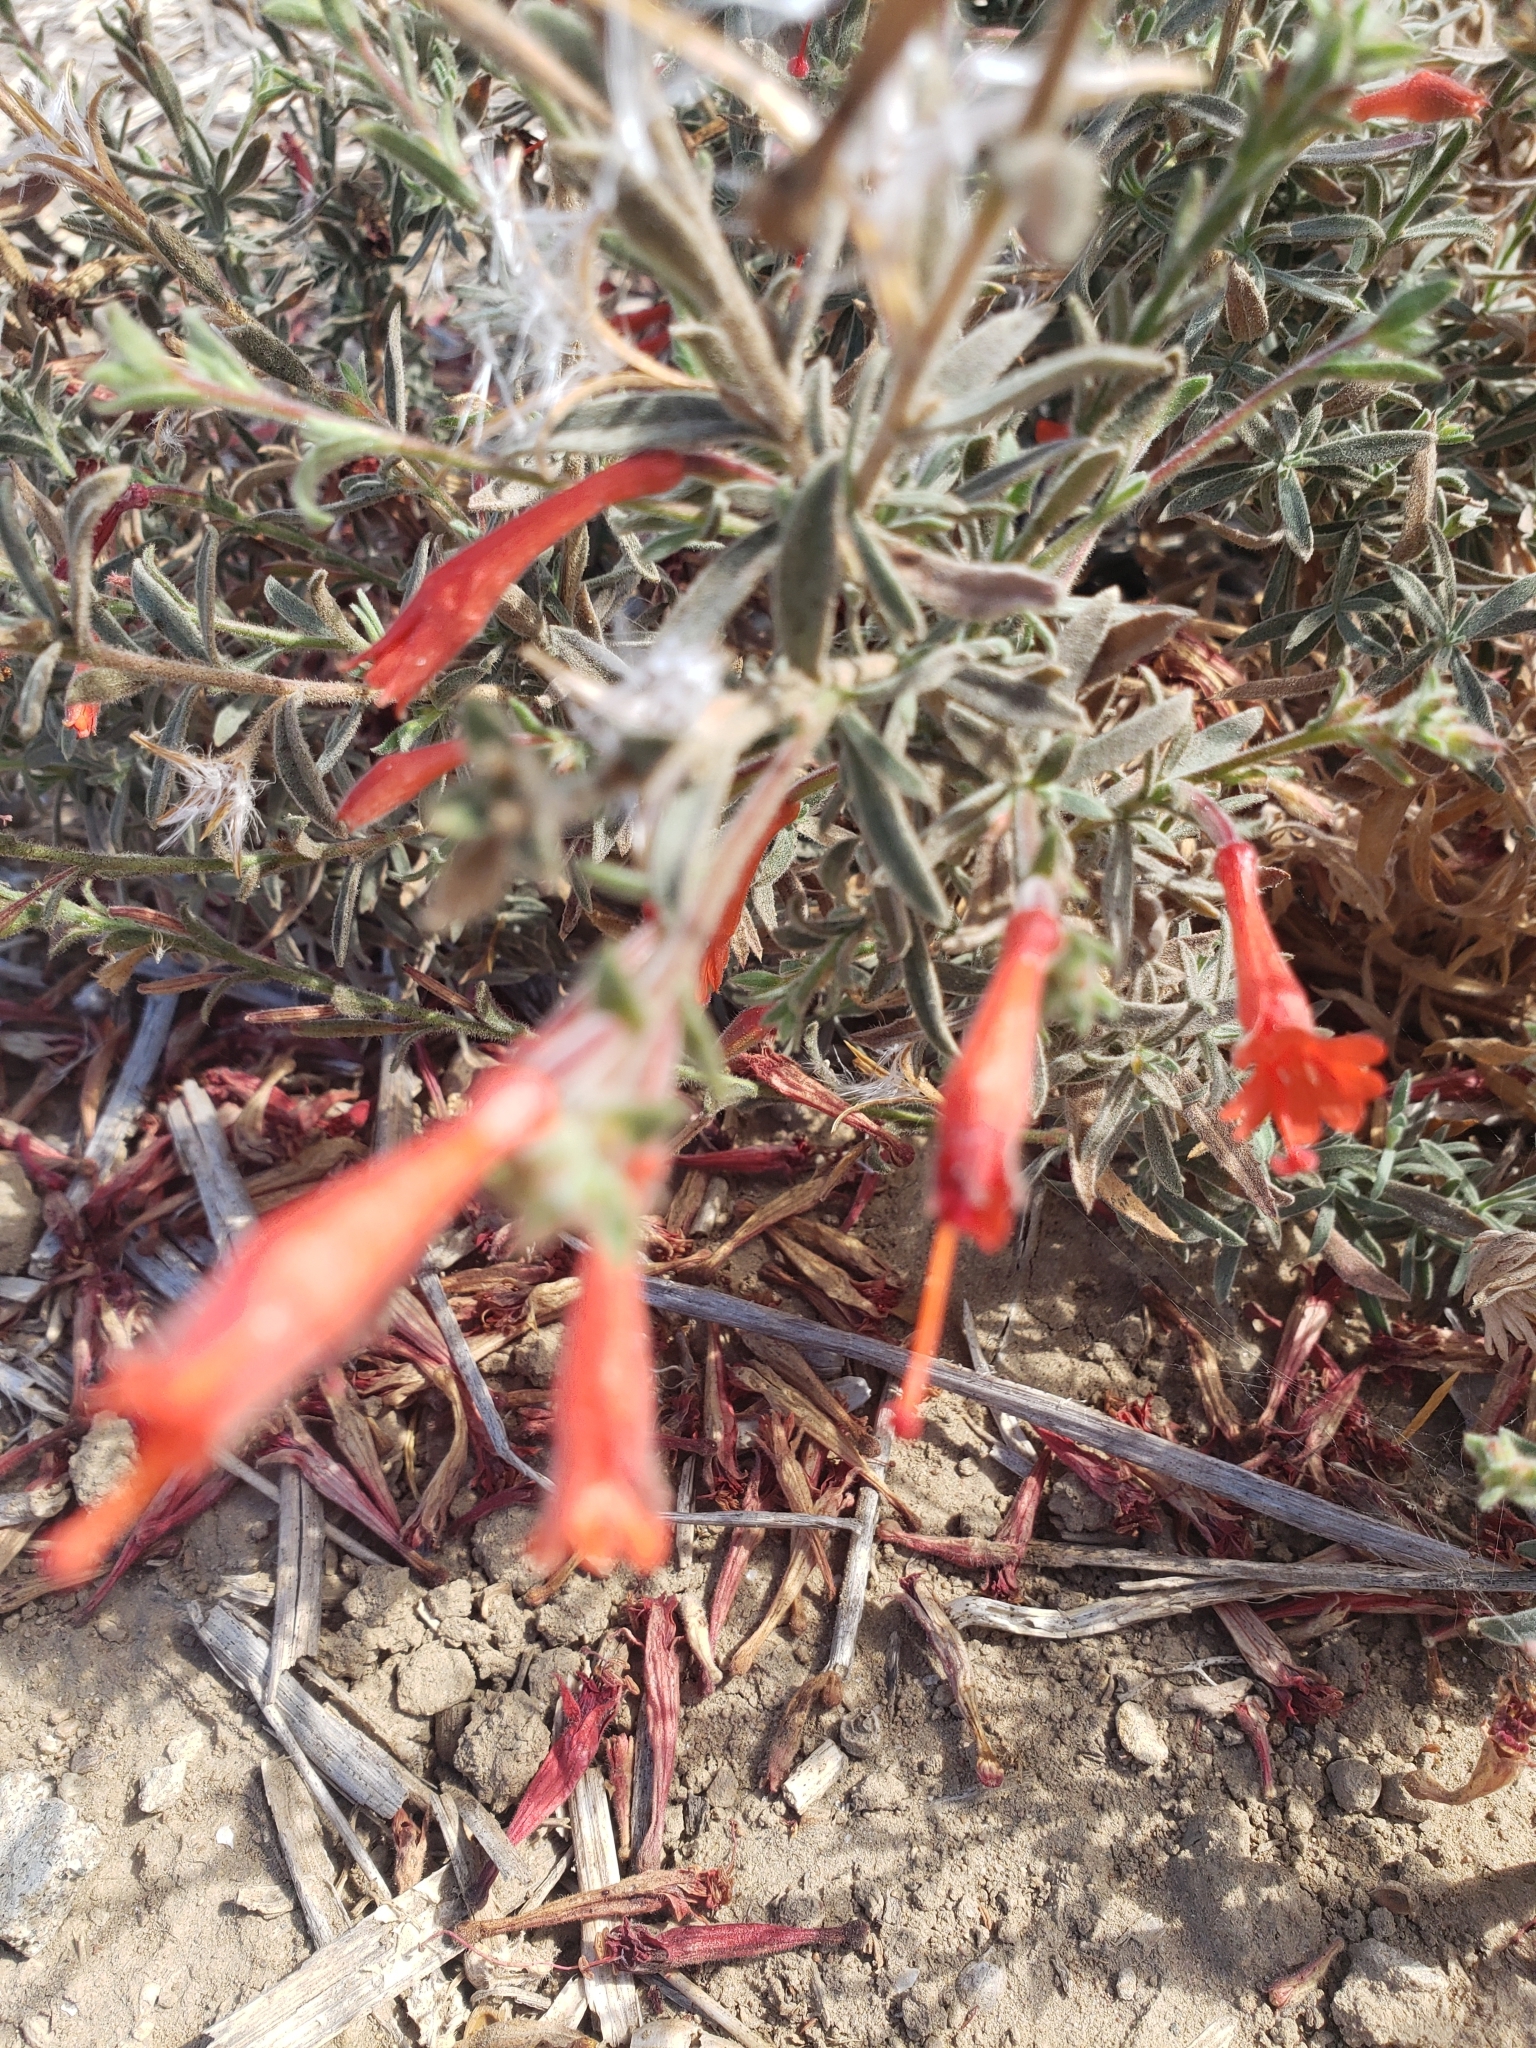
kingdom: Plantae
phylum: Tracheophyta
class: Magnoliopsida
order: Myrtales
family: Onagraceae
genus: Epilobium
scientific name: Epilobium canum
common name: California-fuchsia
